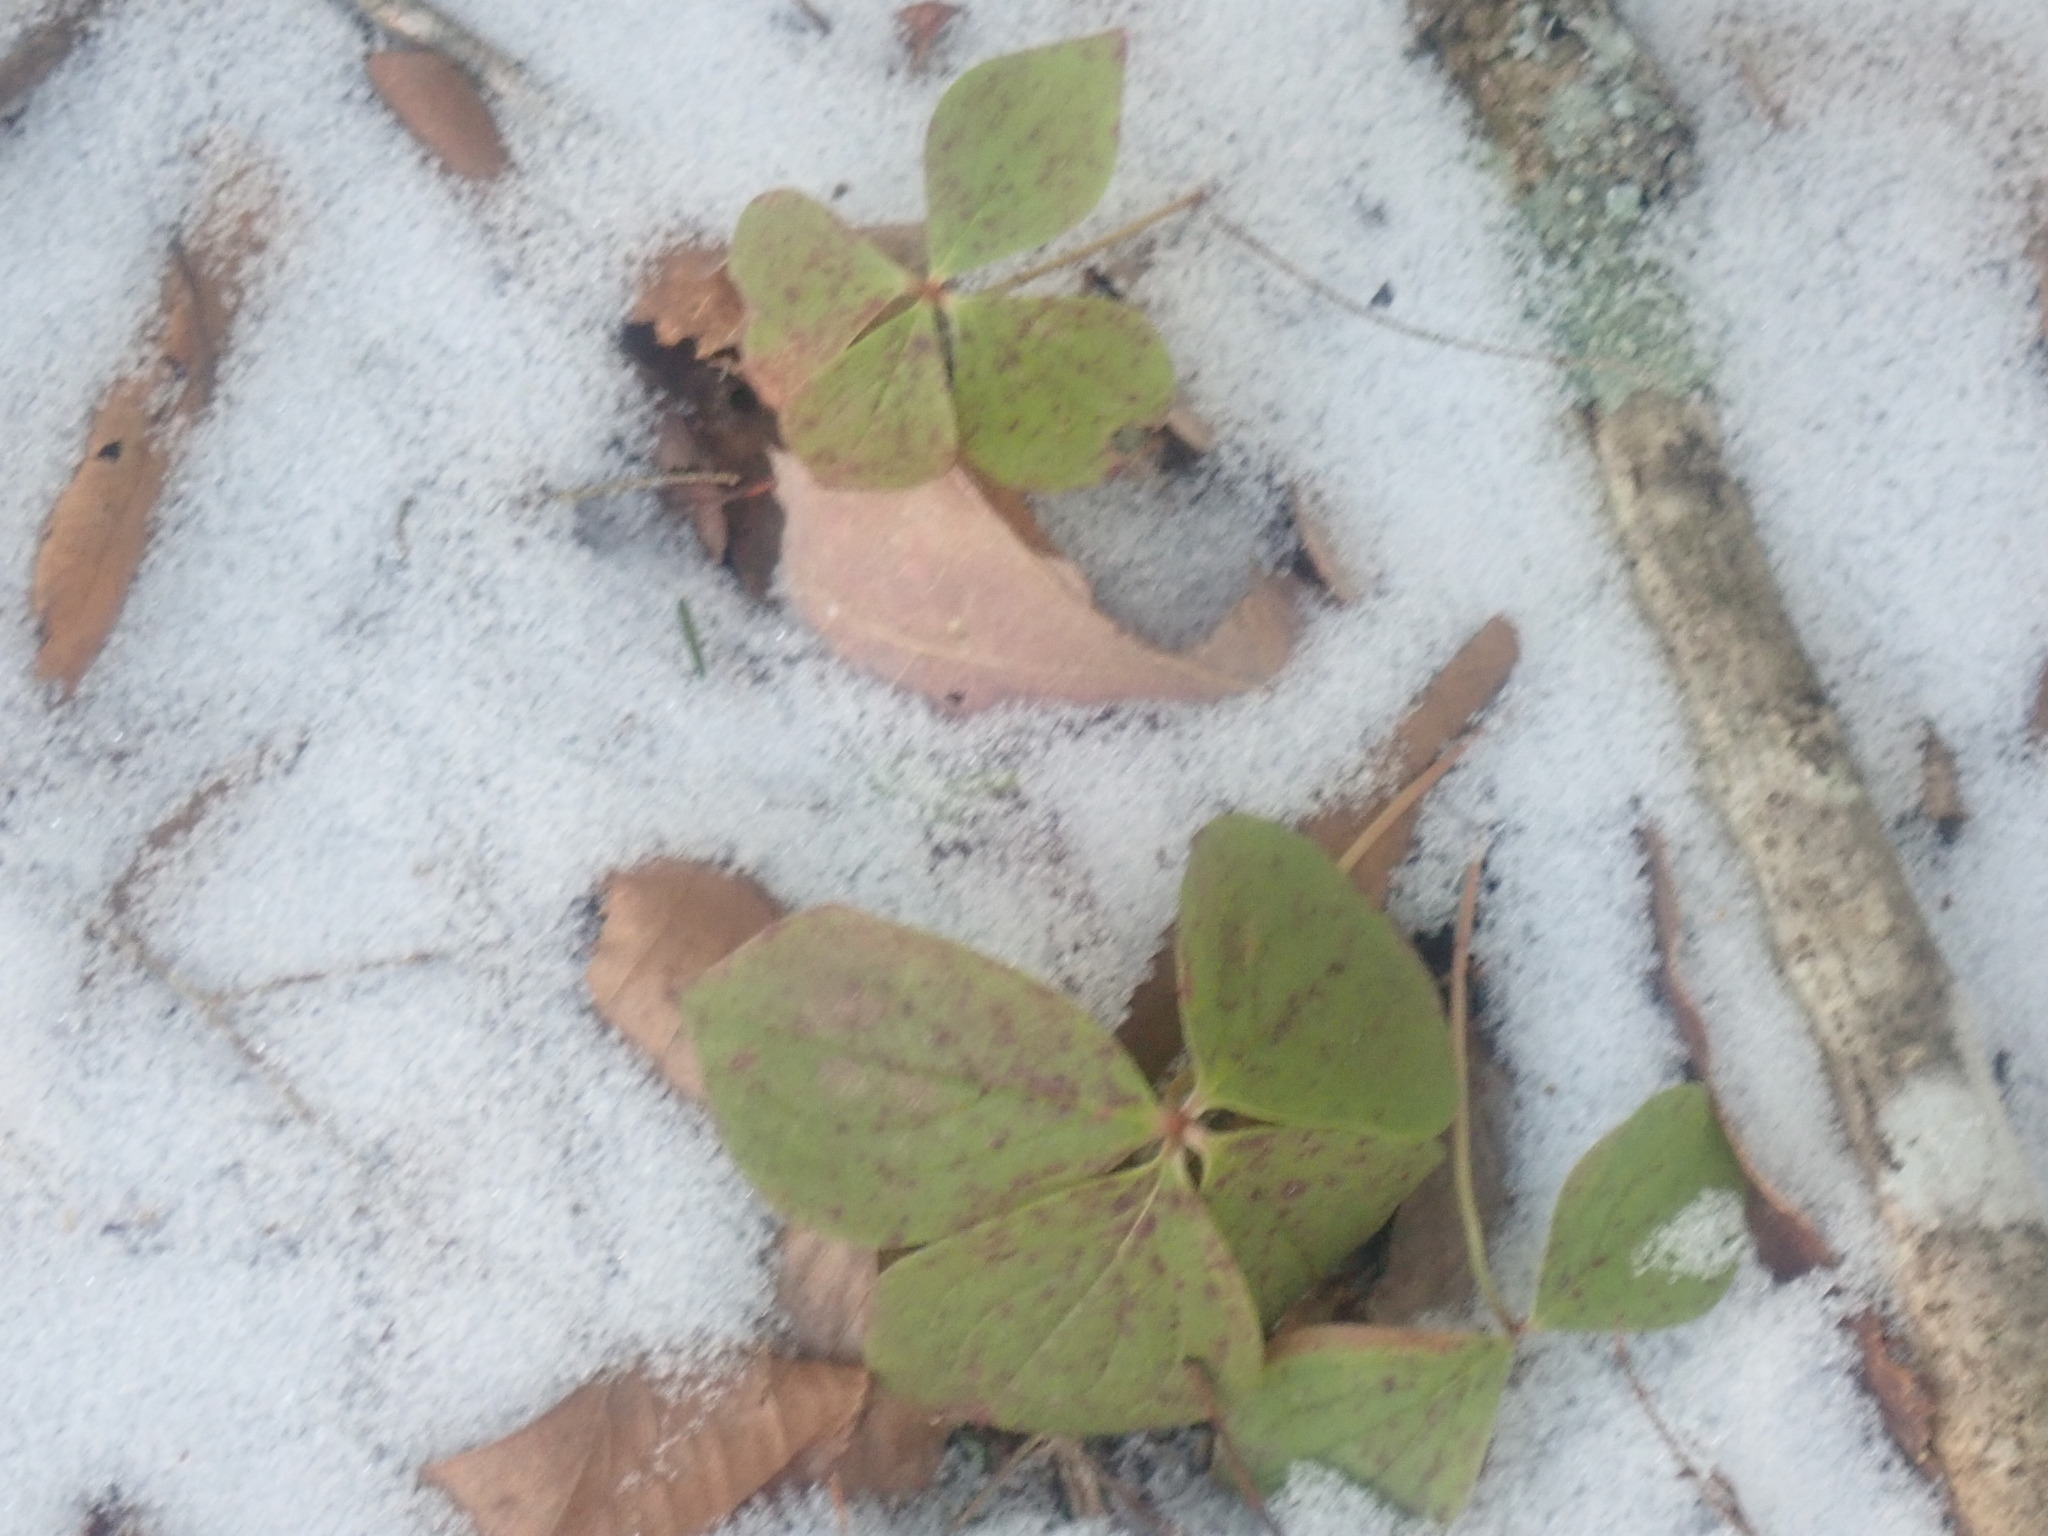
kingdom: Plantae
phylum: Tracheophyta
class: Magnoliopsida
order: Cornales
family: Cornaceae
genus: Cornus
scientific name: Cornus canadensis
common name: Creeping dogwood
